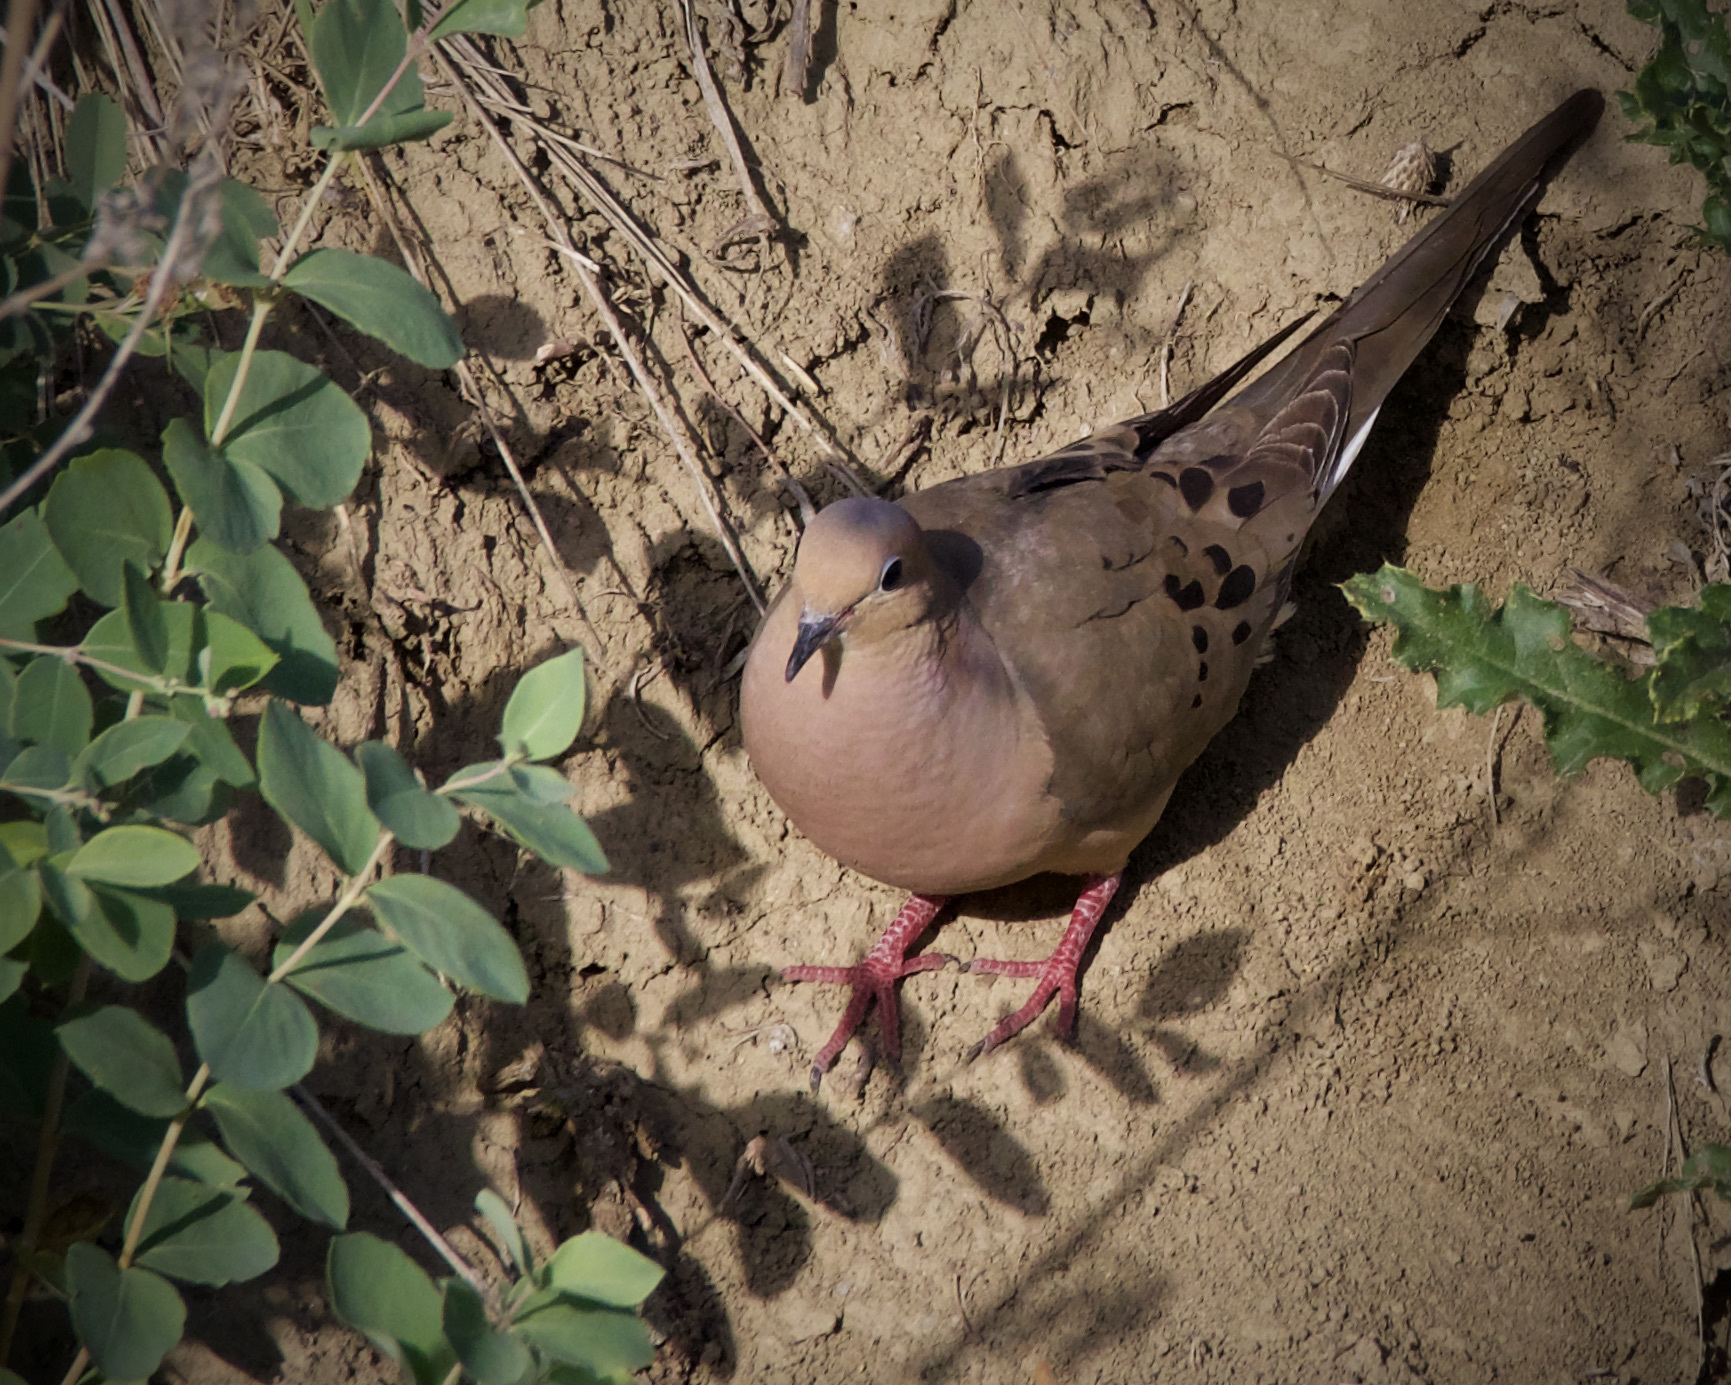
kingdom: Animalia
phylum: Chordata
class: Aves
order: Columbiformes
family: Columbidae
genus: Zenaida
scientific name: Zenaida macroura
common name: Mourning dove
